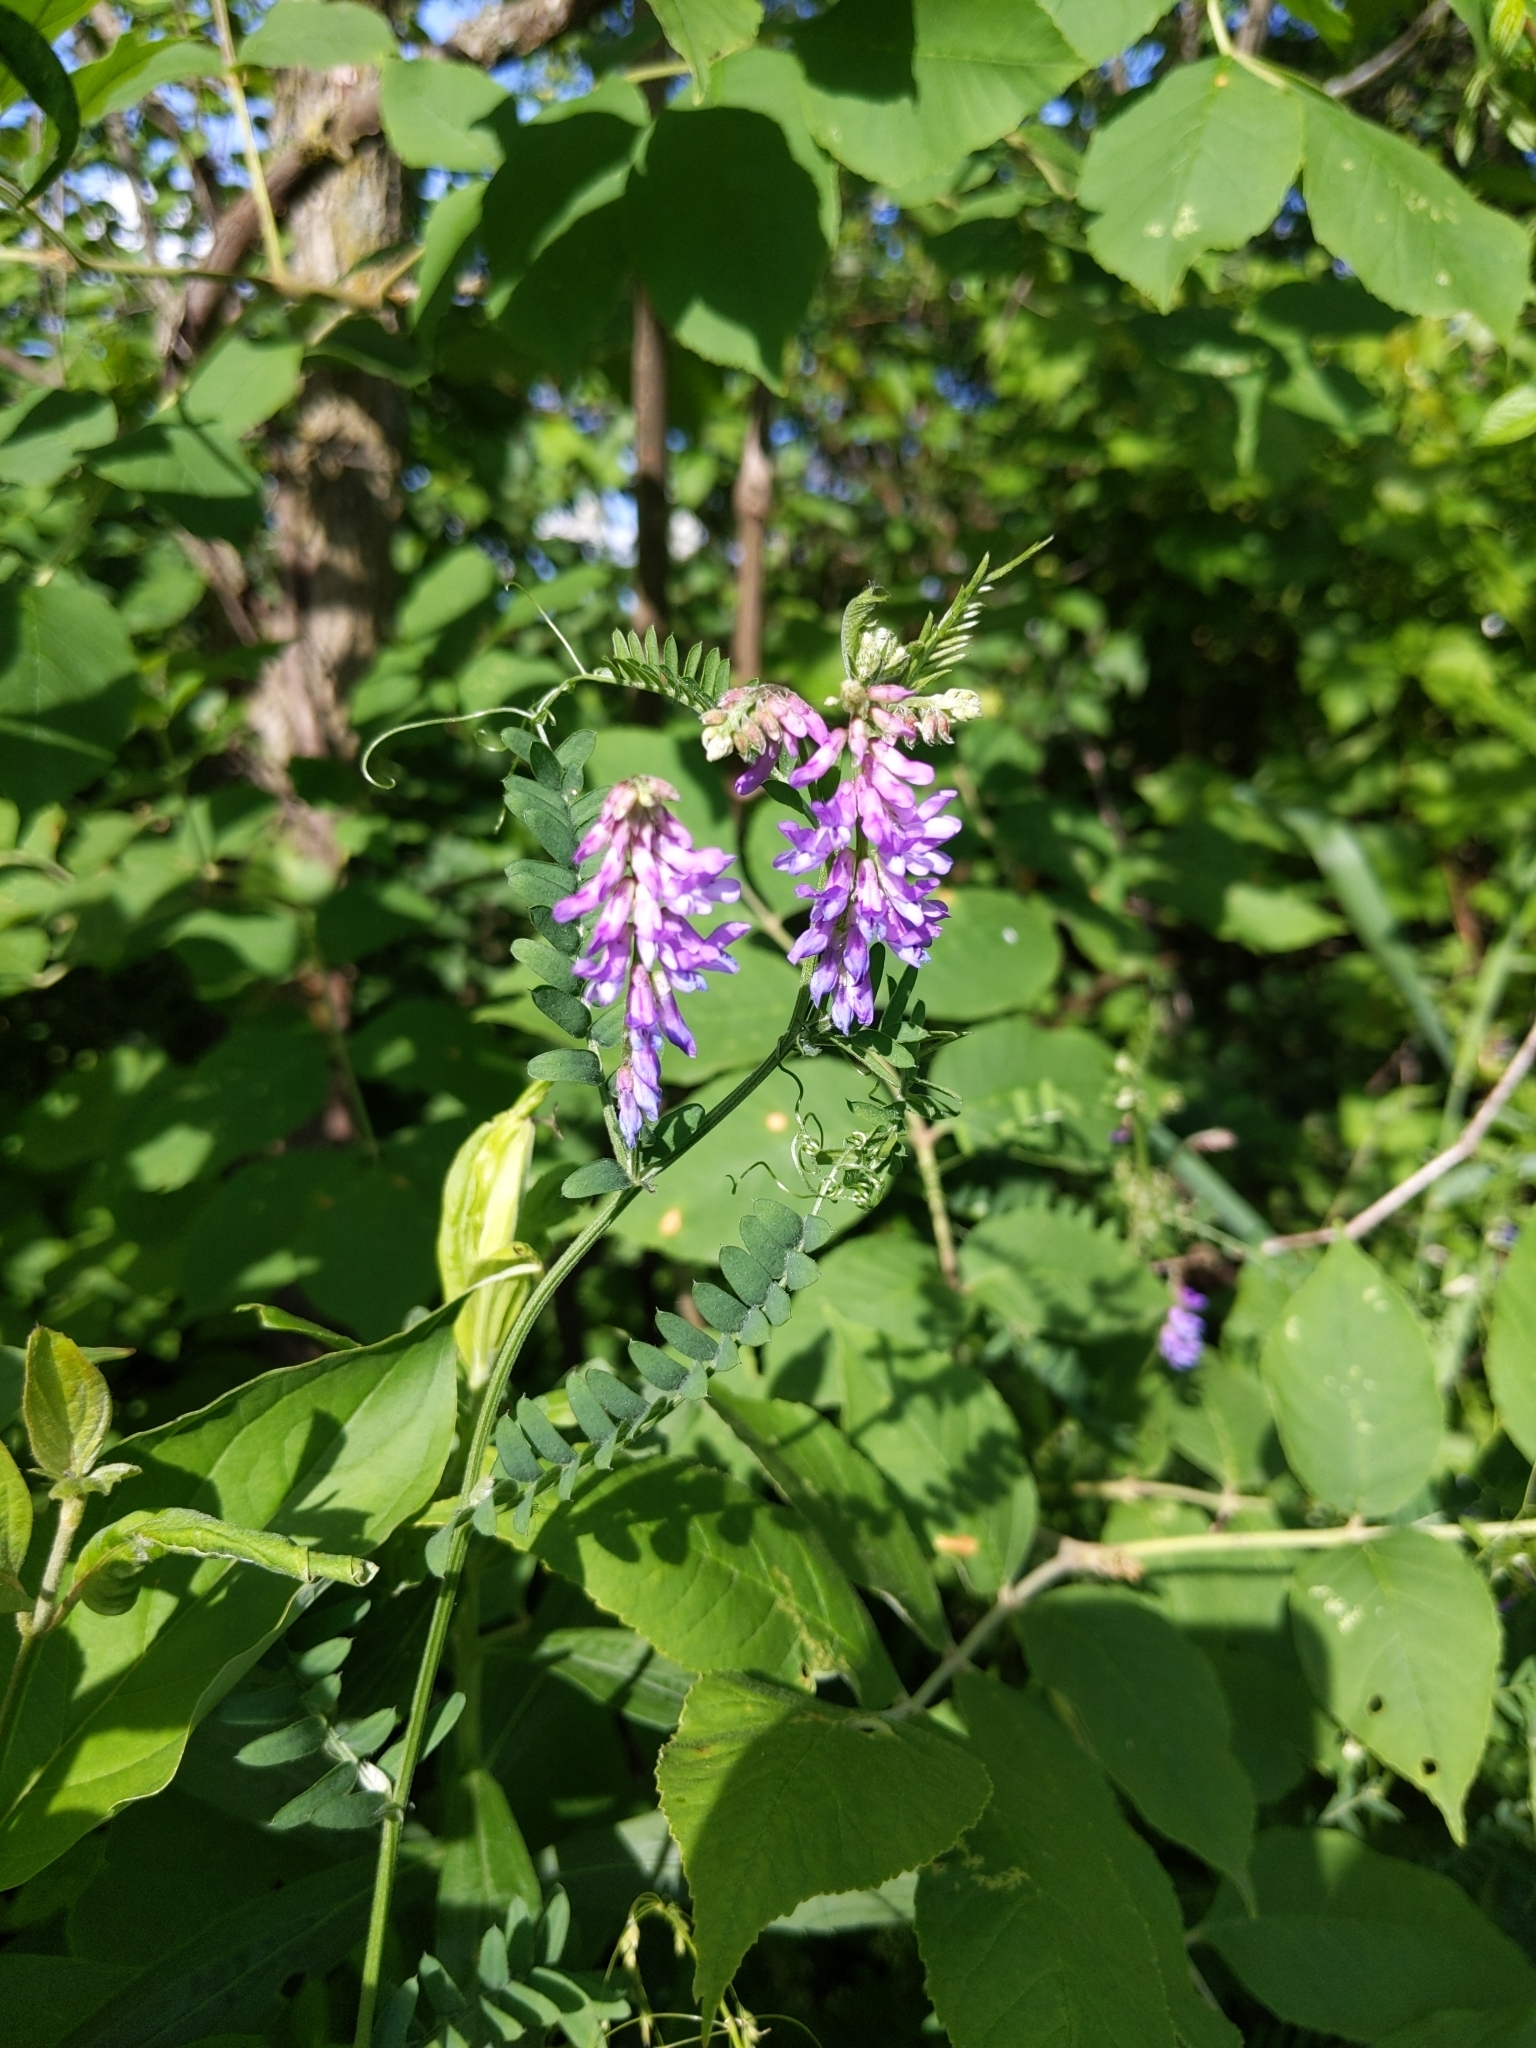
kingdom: Plantae
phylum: Tracheophyta
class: Magnoliopsida
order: Fabales
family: Fabaceae
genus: Vicia
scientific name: Vicia cracca
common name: Bird vetch
